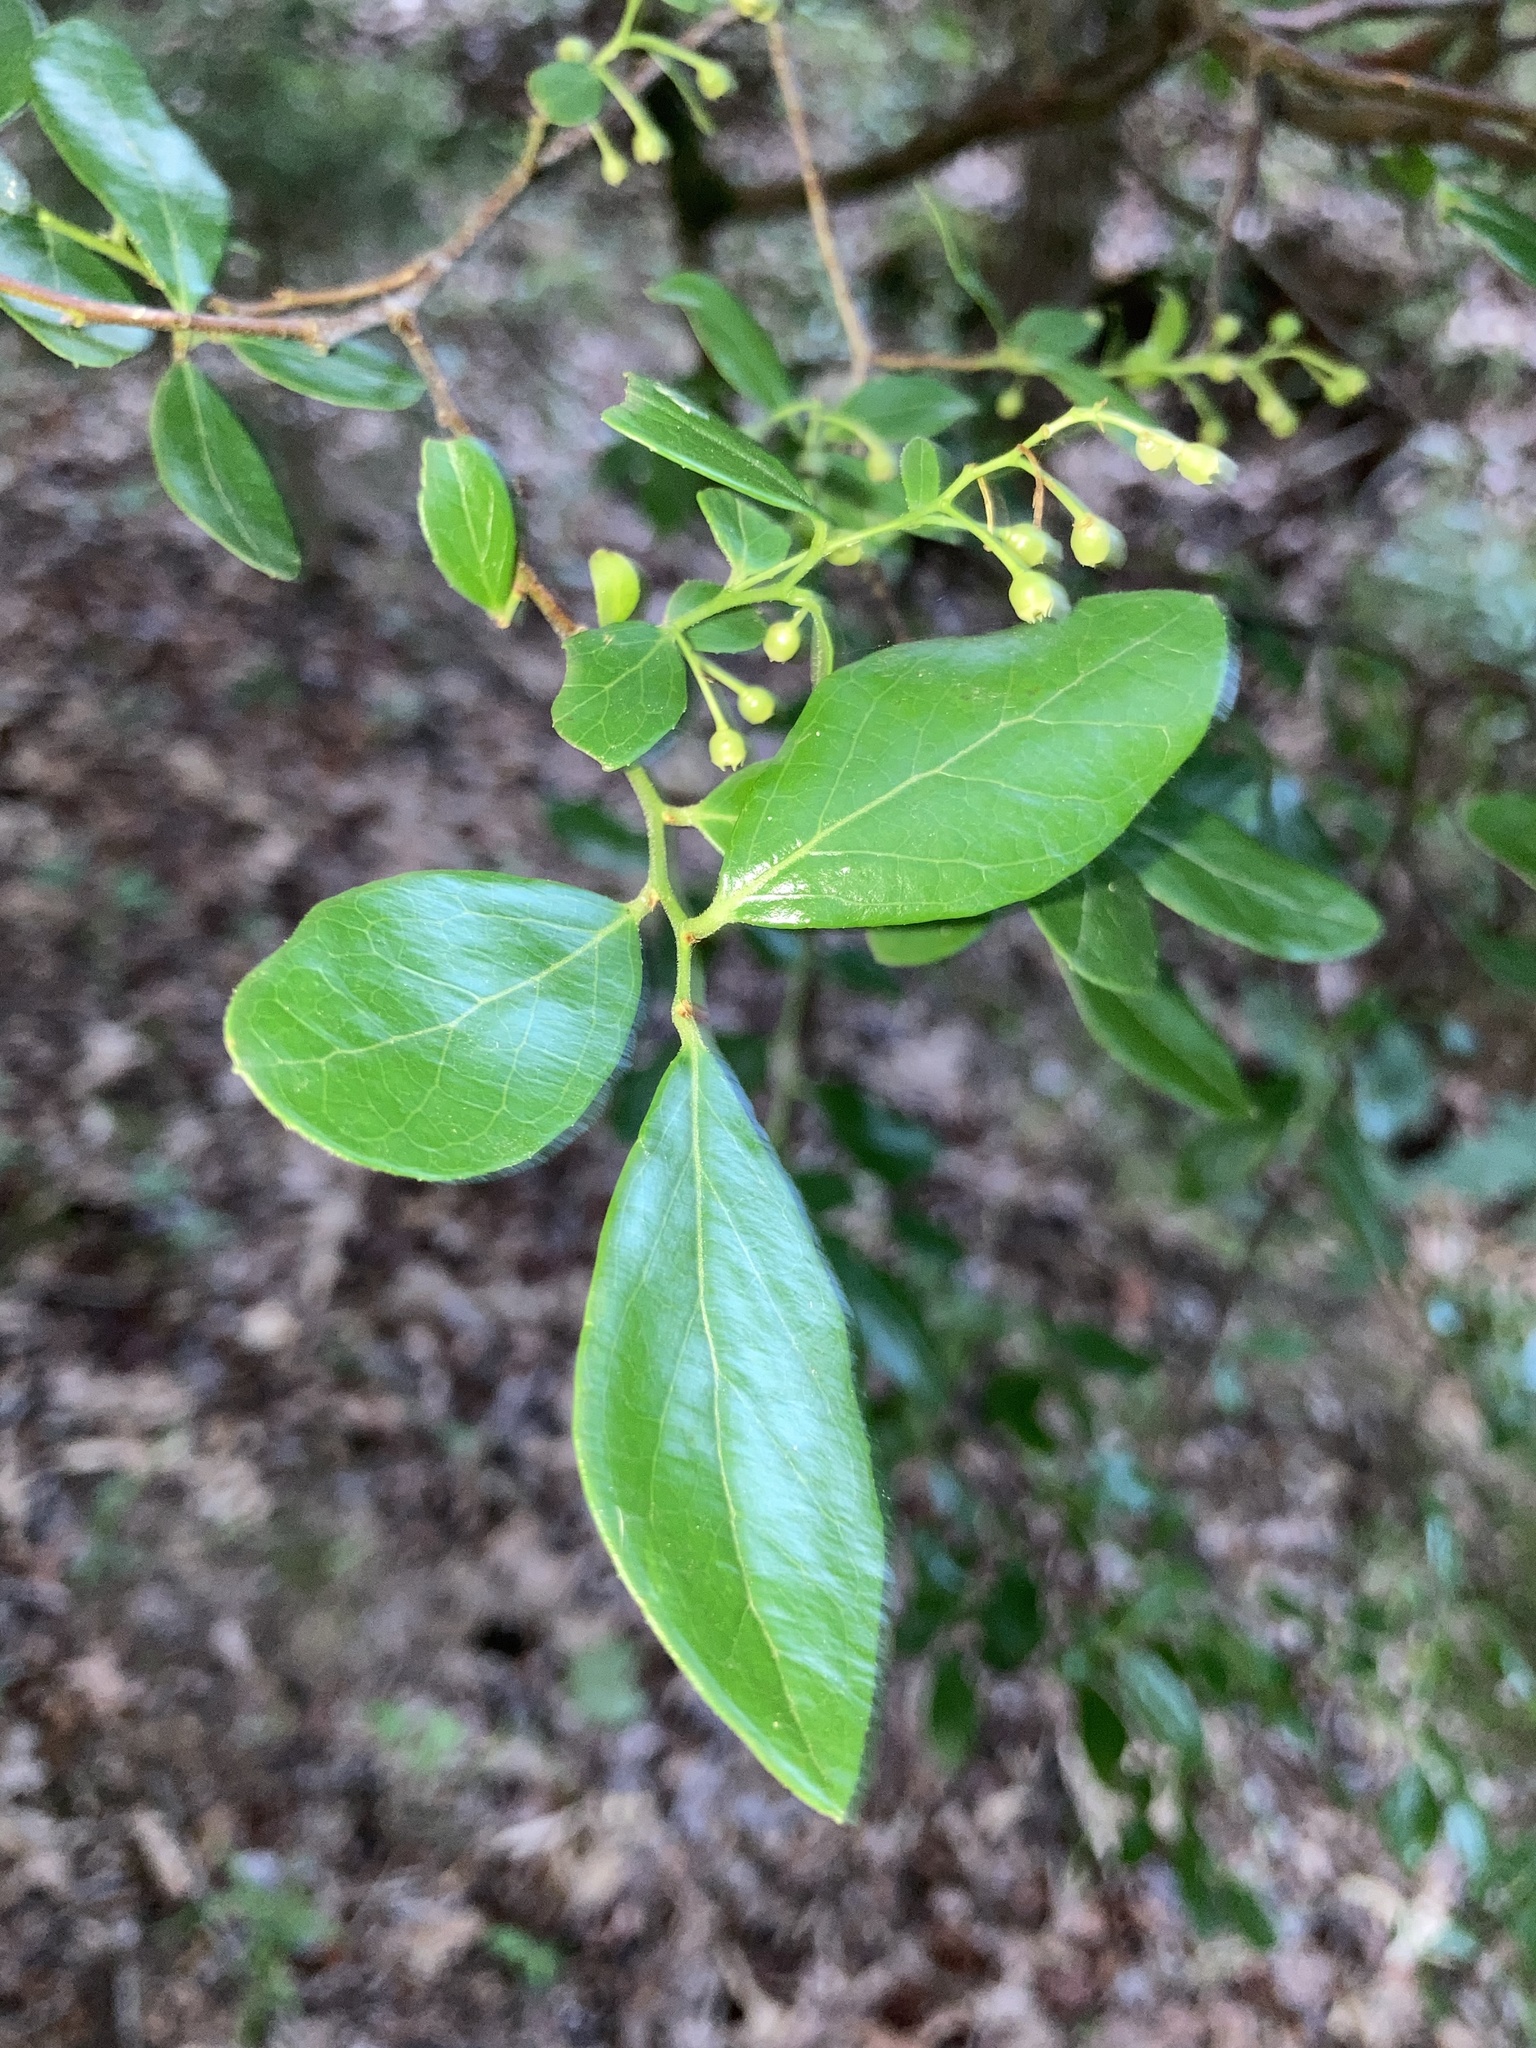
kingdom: Plantae
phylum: Tracheophyta
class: Magnoliopsida
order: Ericales
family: Ericaceae
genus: Vaccinium
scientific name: Vaccinium arboreum
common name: Farkleberry
